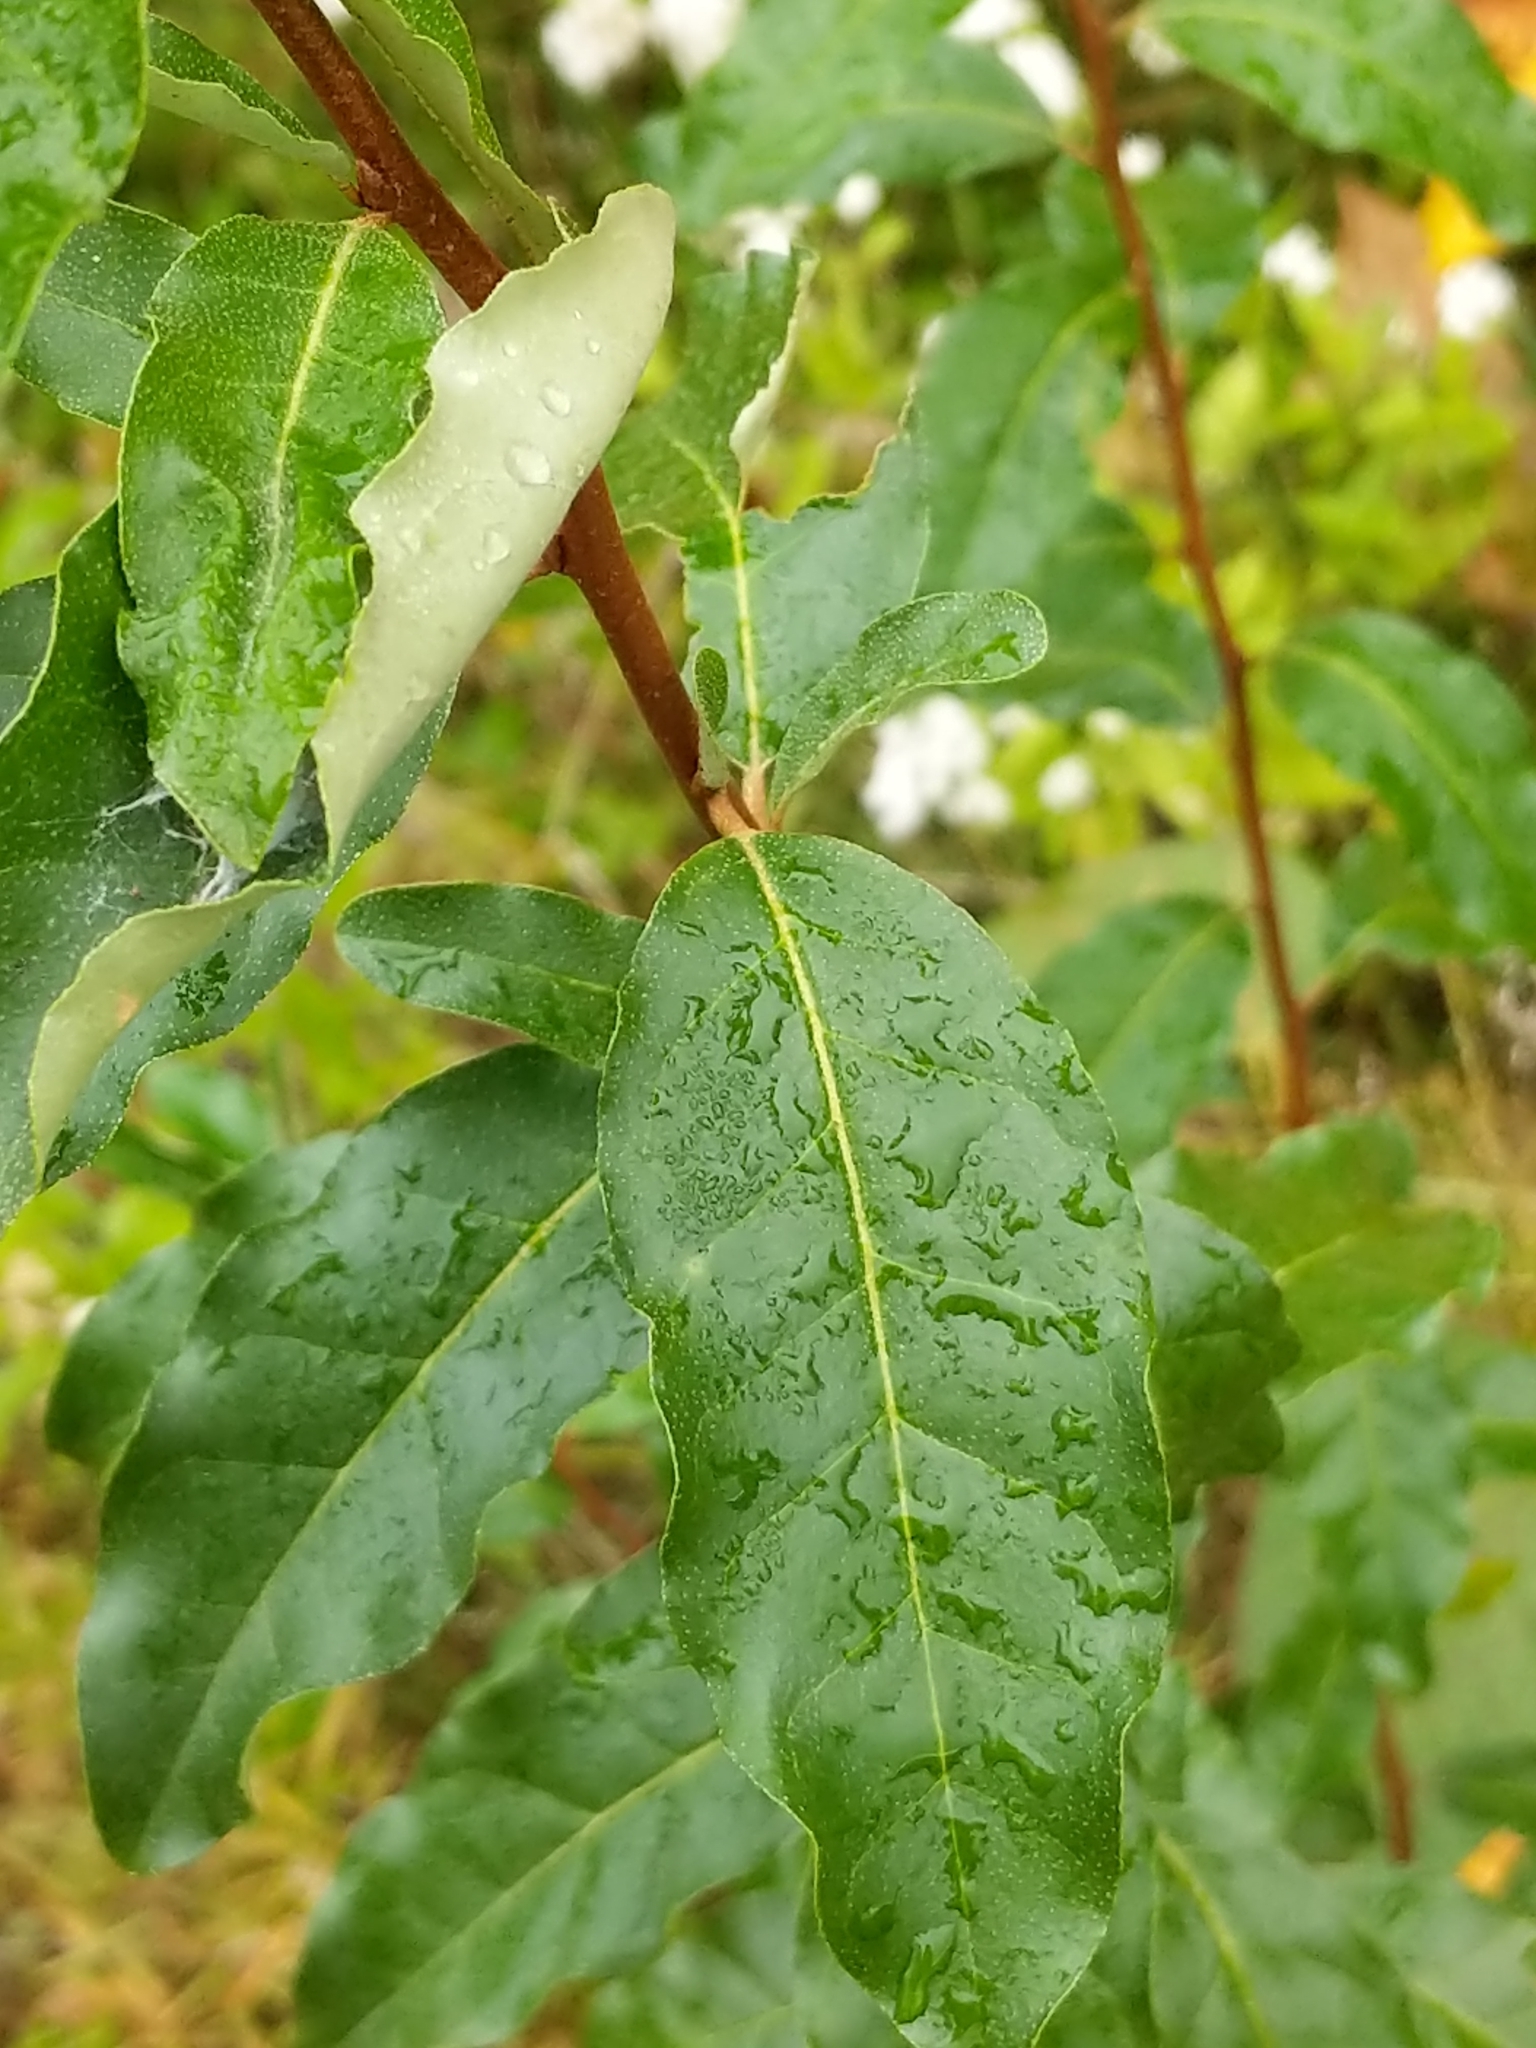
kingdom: Plantae
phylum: Tracheophyta
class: Magnoliopsida
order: Rosales
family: Elaeagnaceae
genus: Elaeagnus
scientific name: Elaeagnus umbellata
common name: Autumn olive
